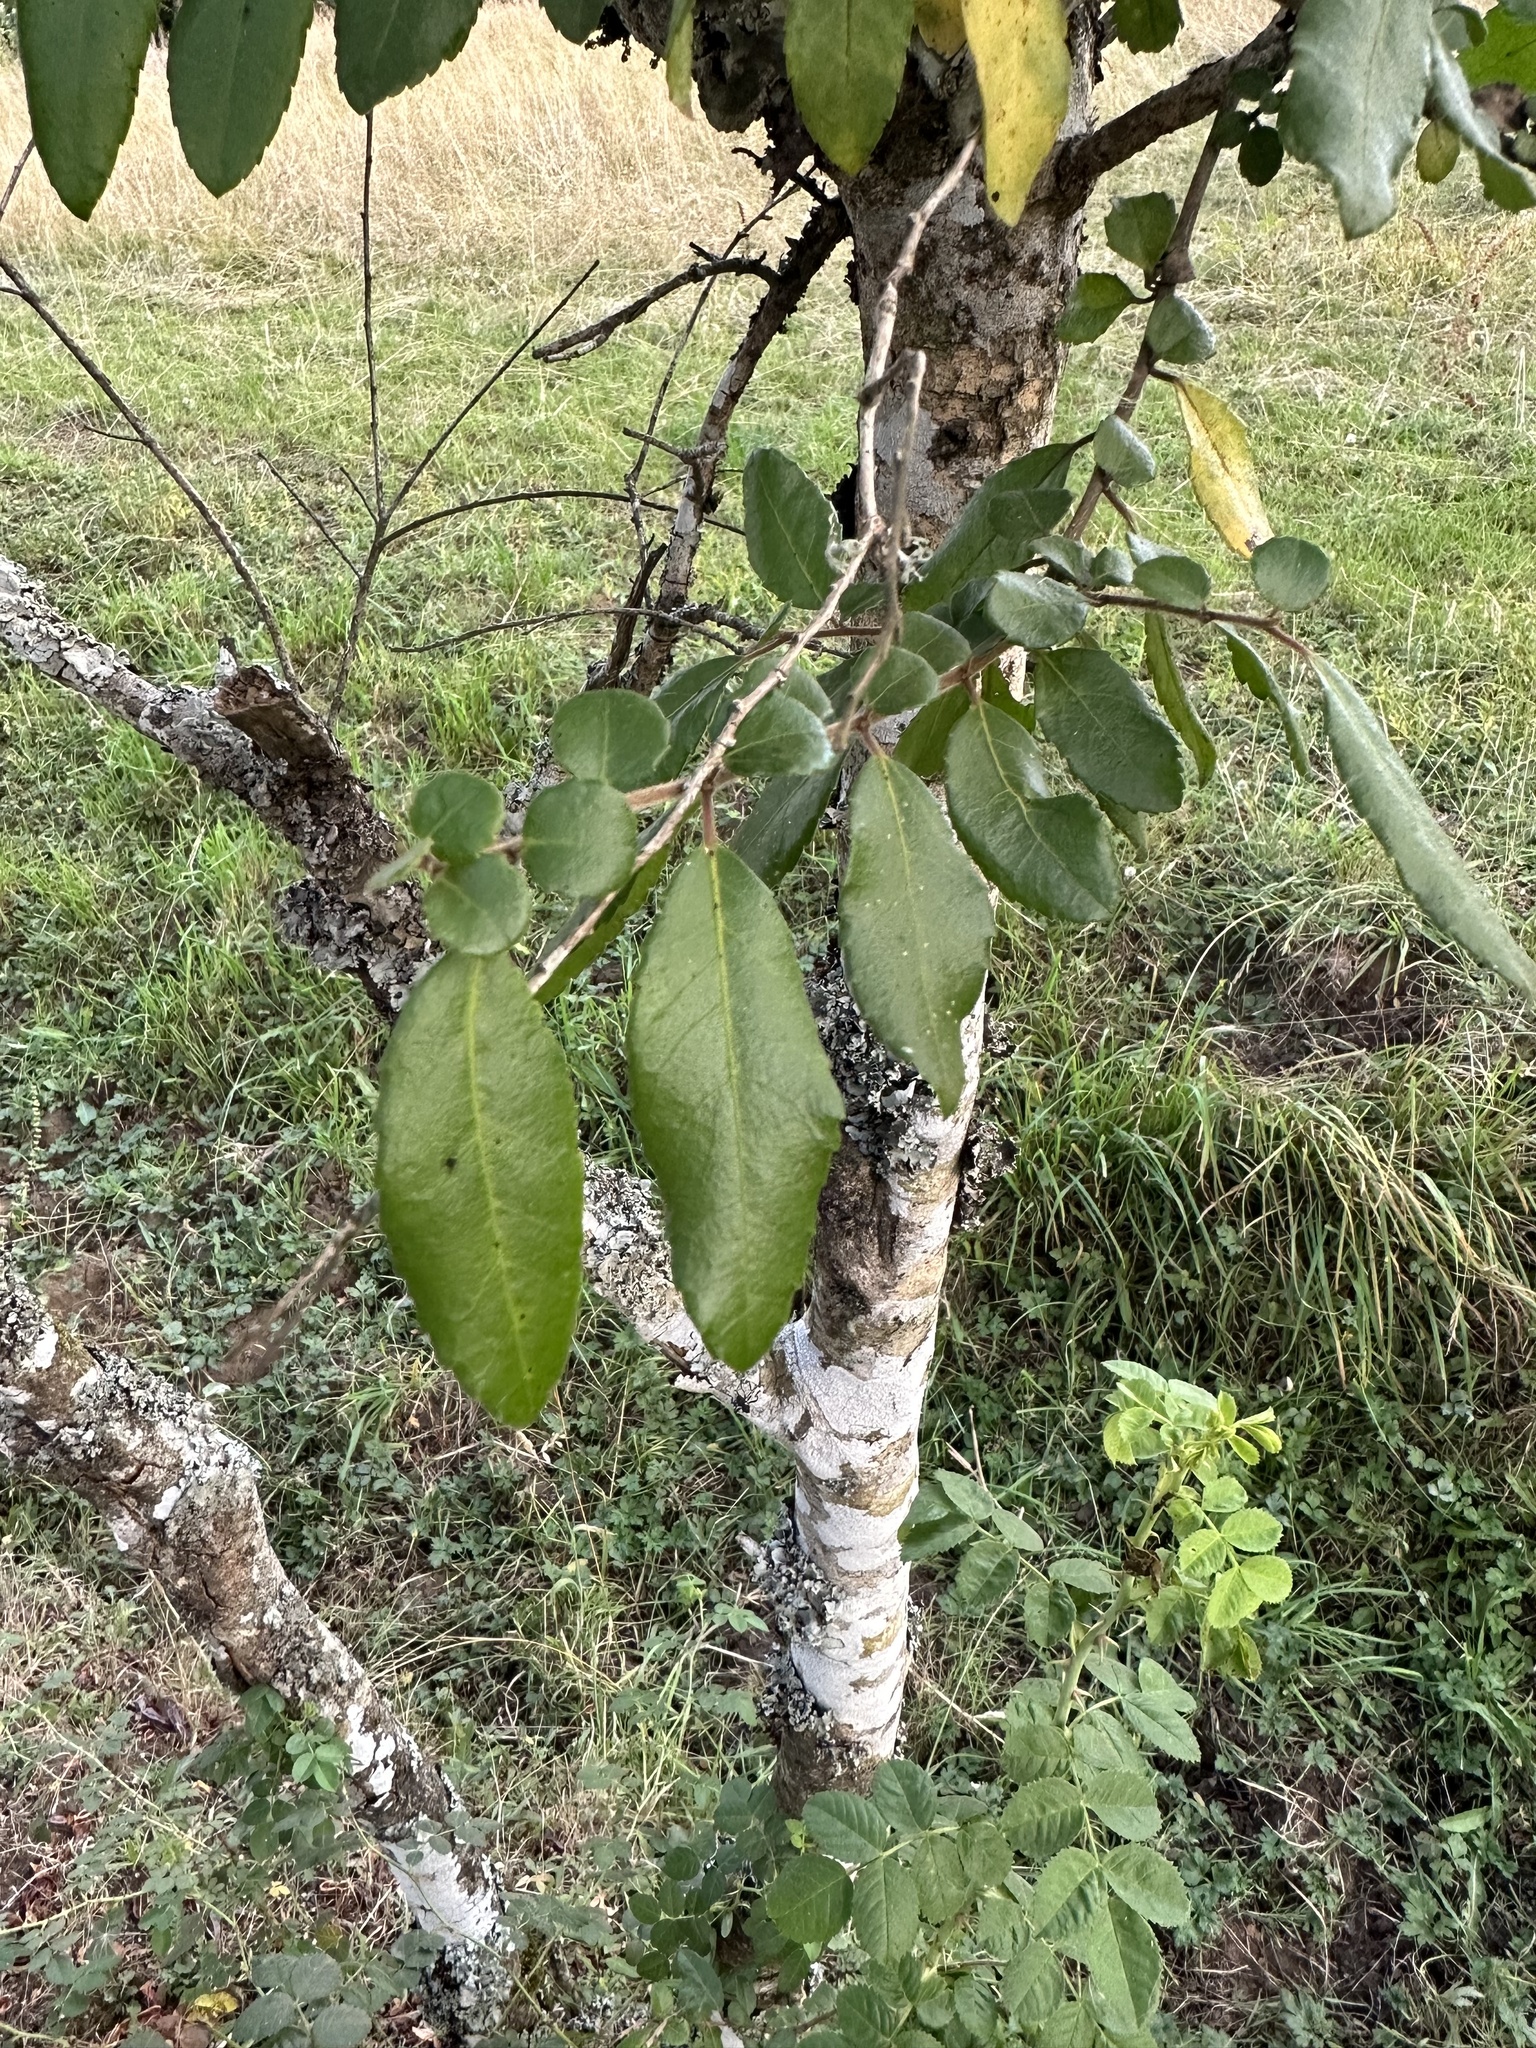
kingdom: Plantae
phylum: Tracheophyta
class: Magnoliopsida
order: Malpighiales
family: Salicaceae
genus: Azara
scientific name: Azara serrata
